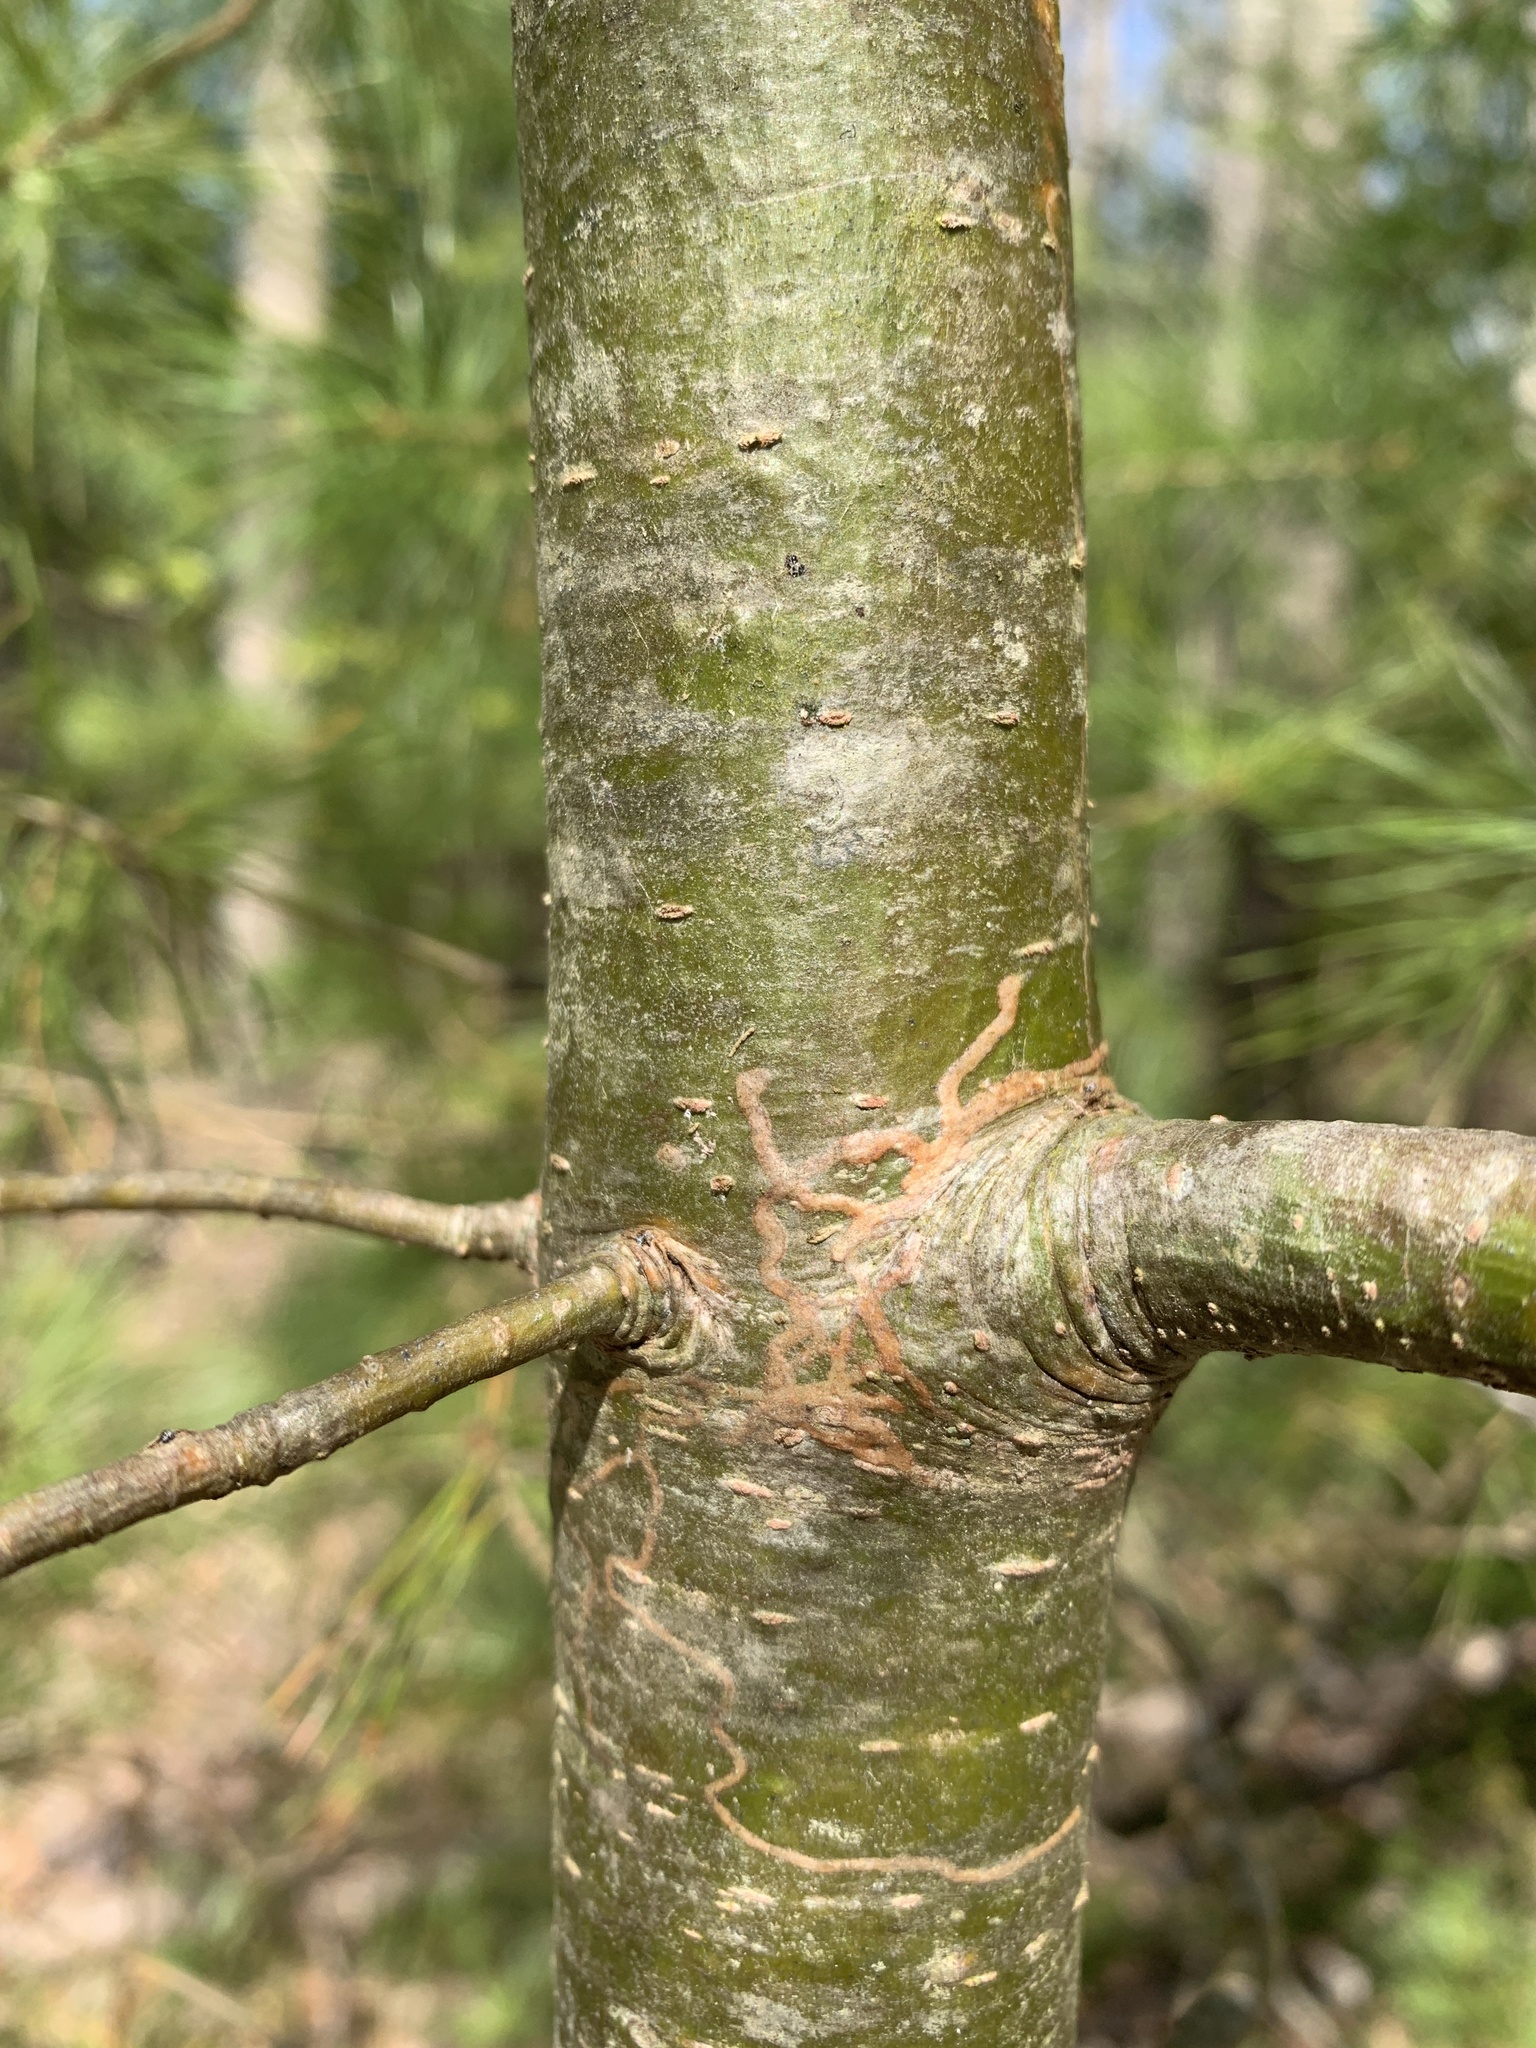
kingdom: Animalia
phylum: Arthropoda
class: Insecta
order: Lepidoptera
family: Gracillariidae
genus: Marmara
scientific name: Marmara fasciella
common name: White pine barkminer moth
